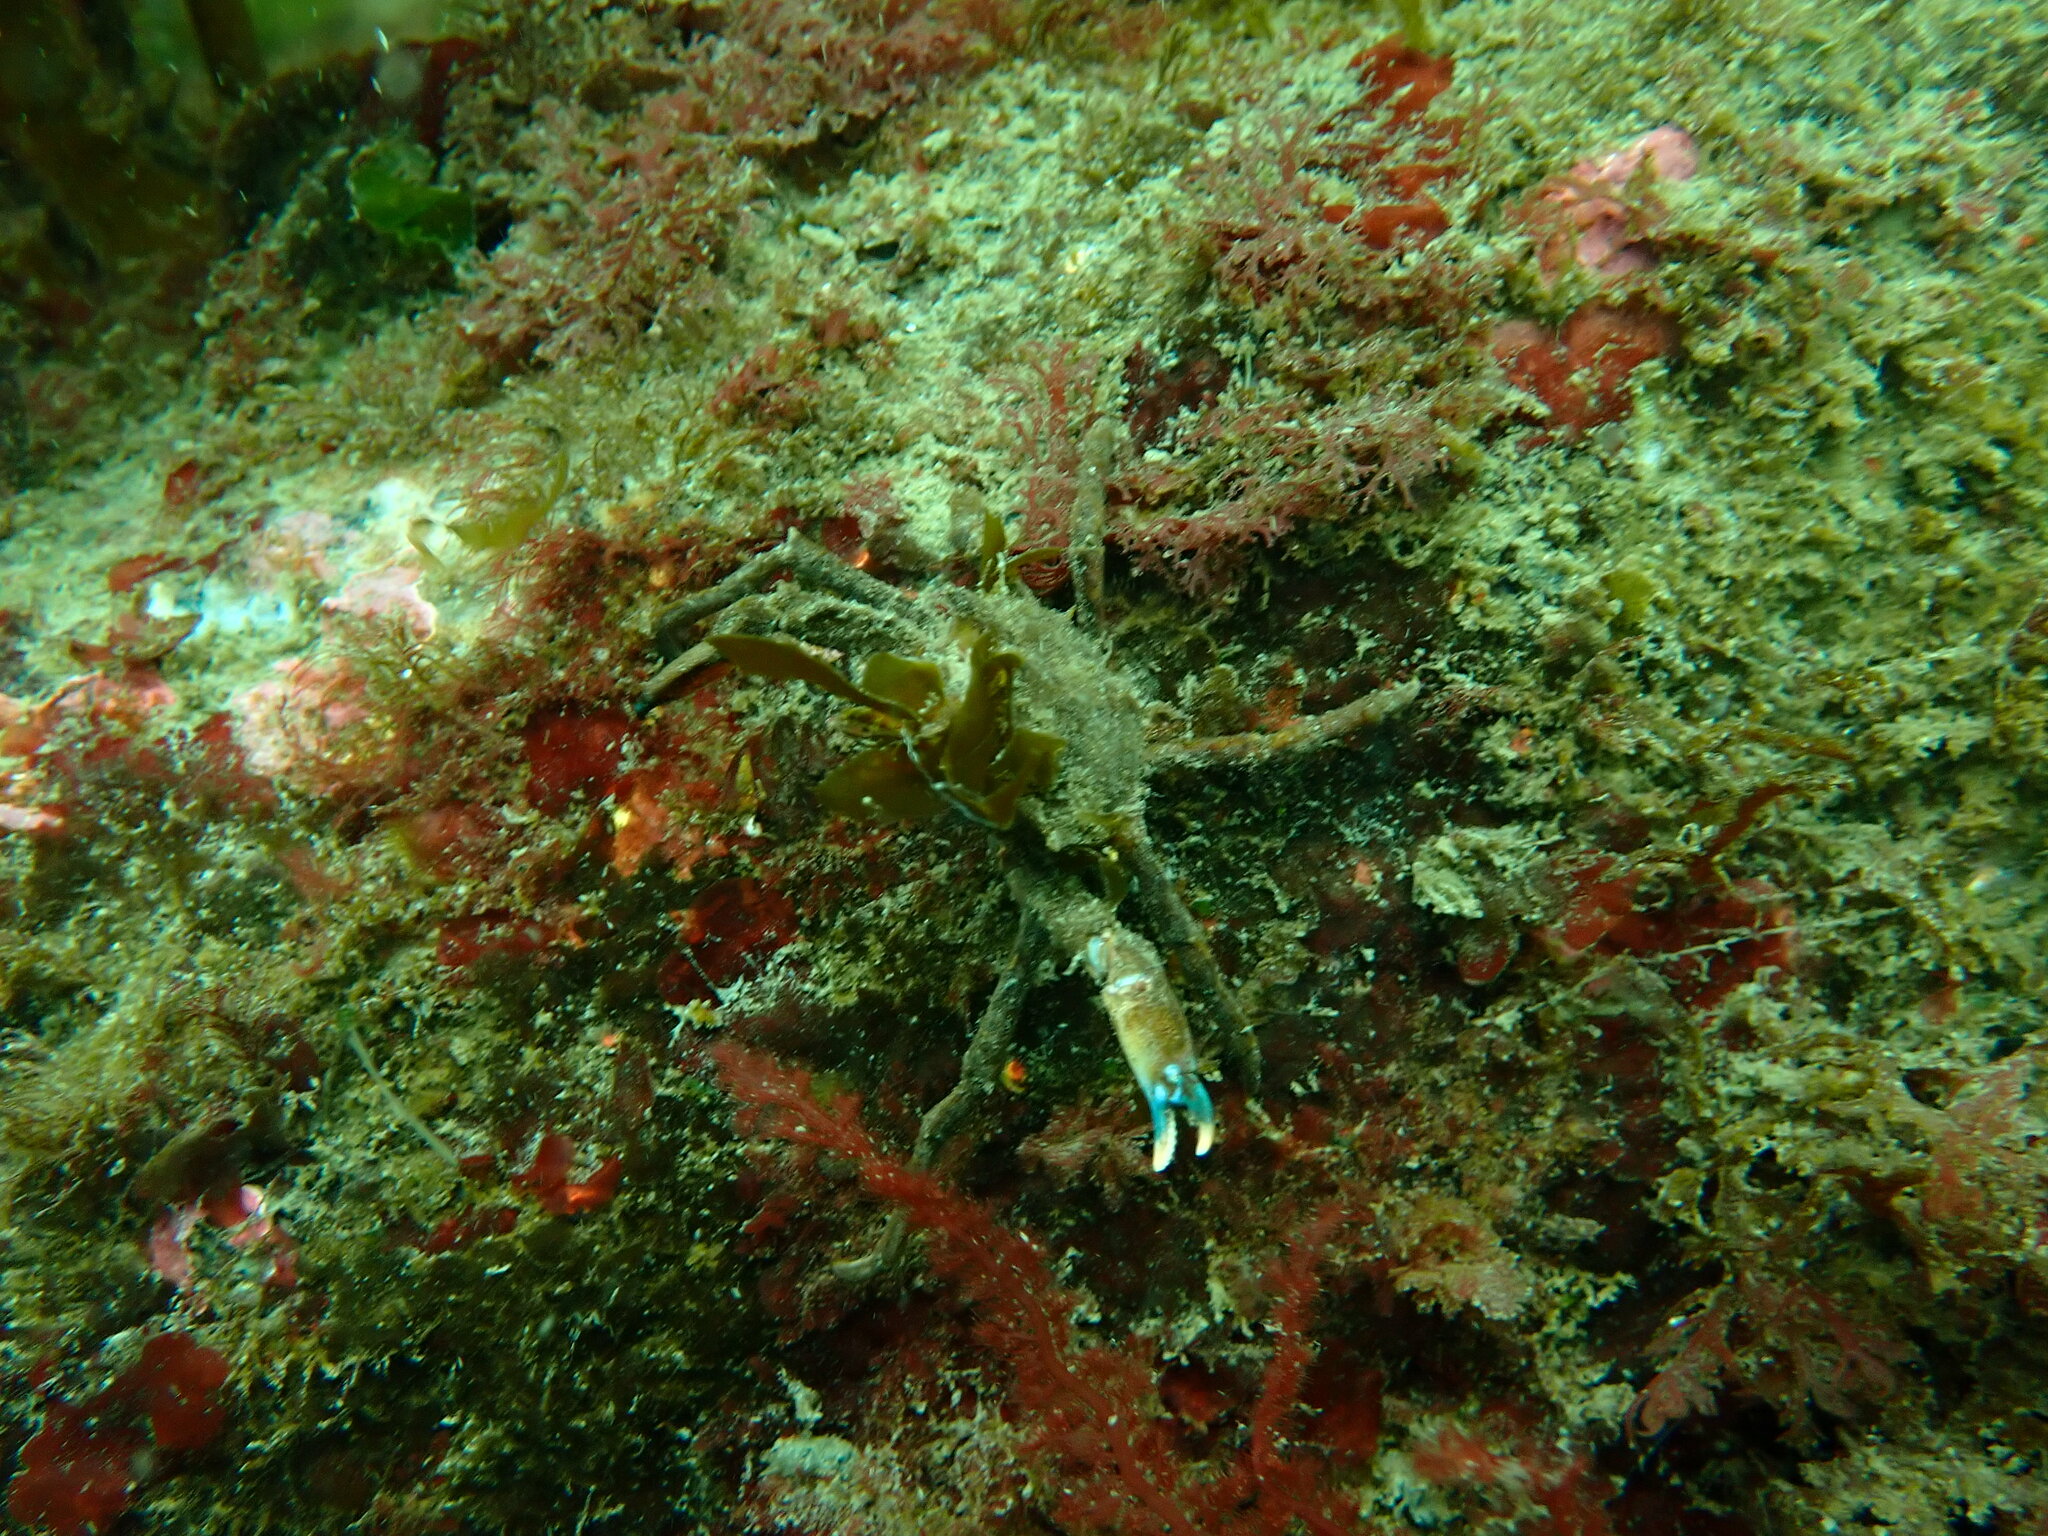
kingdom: Animalia
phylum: Arthropoda
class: Malacostraca
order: Decapoda
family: Epialtidae
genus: Pugettia
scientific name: Pugettia gracilis
